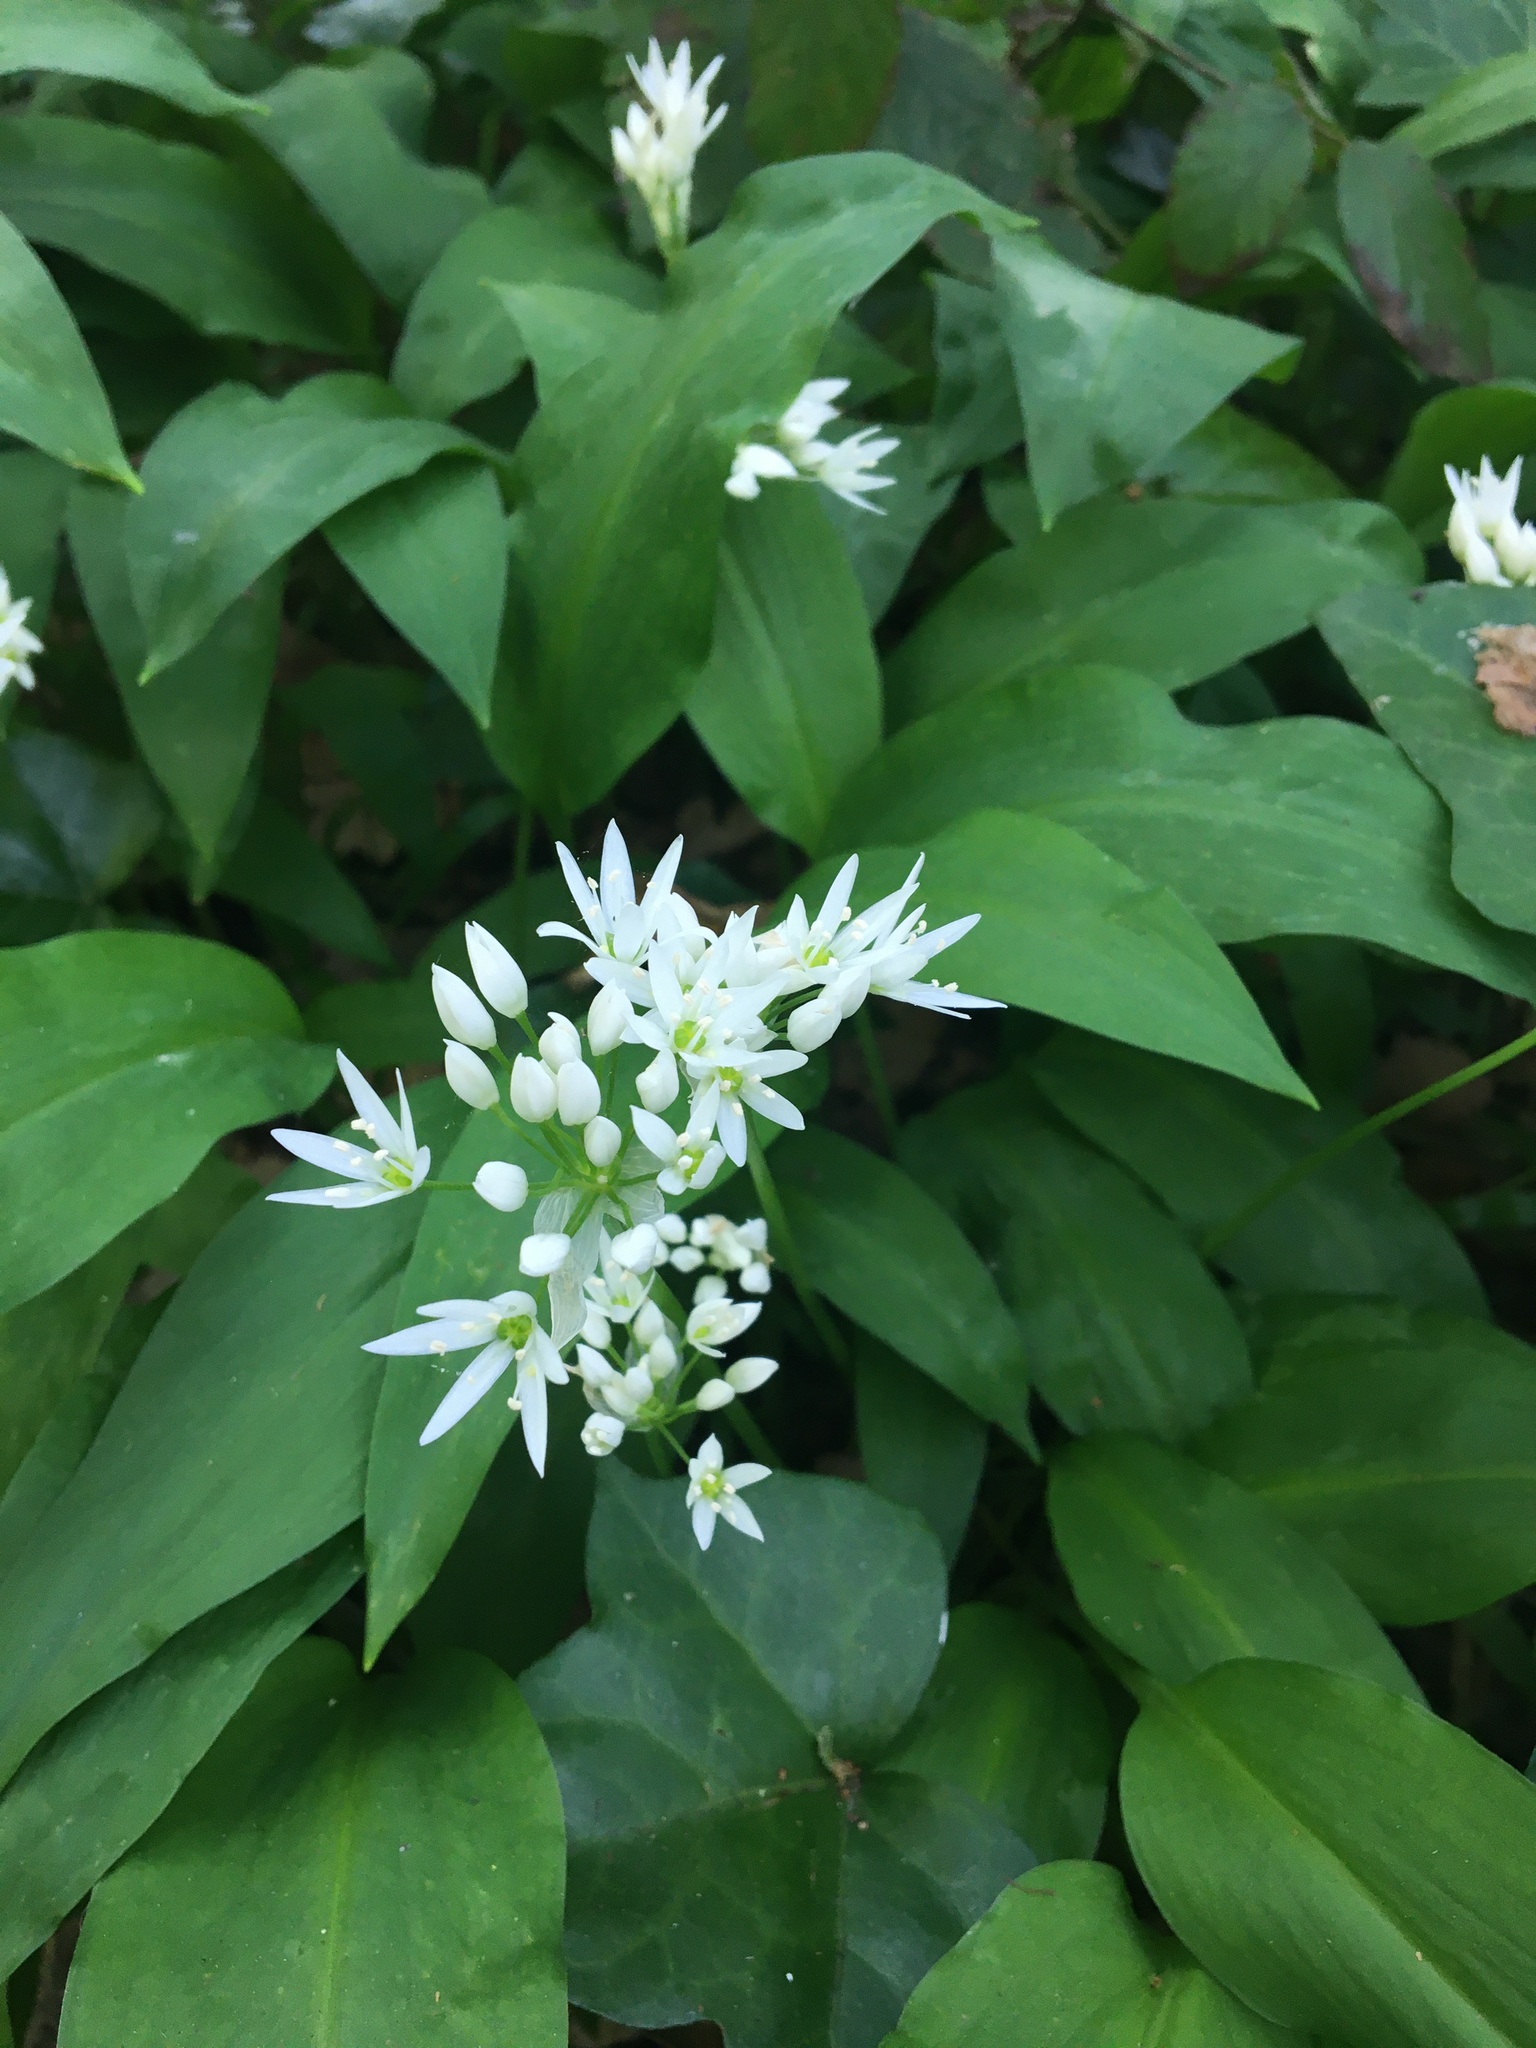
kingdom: Plantae
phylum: Tracheophyta
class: Liliopsida
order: Asparagales
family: Amaryllidaceae
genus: Allium
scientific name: Allium ursinum
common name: Ramsons
